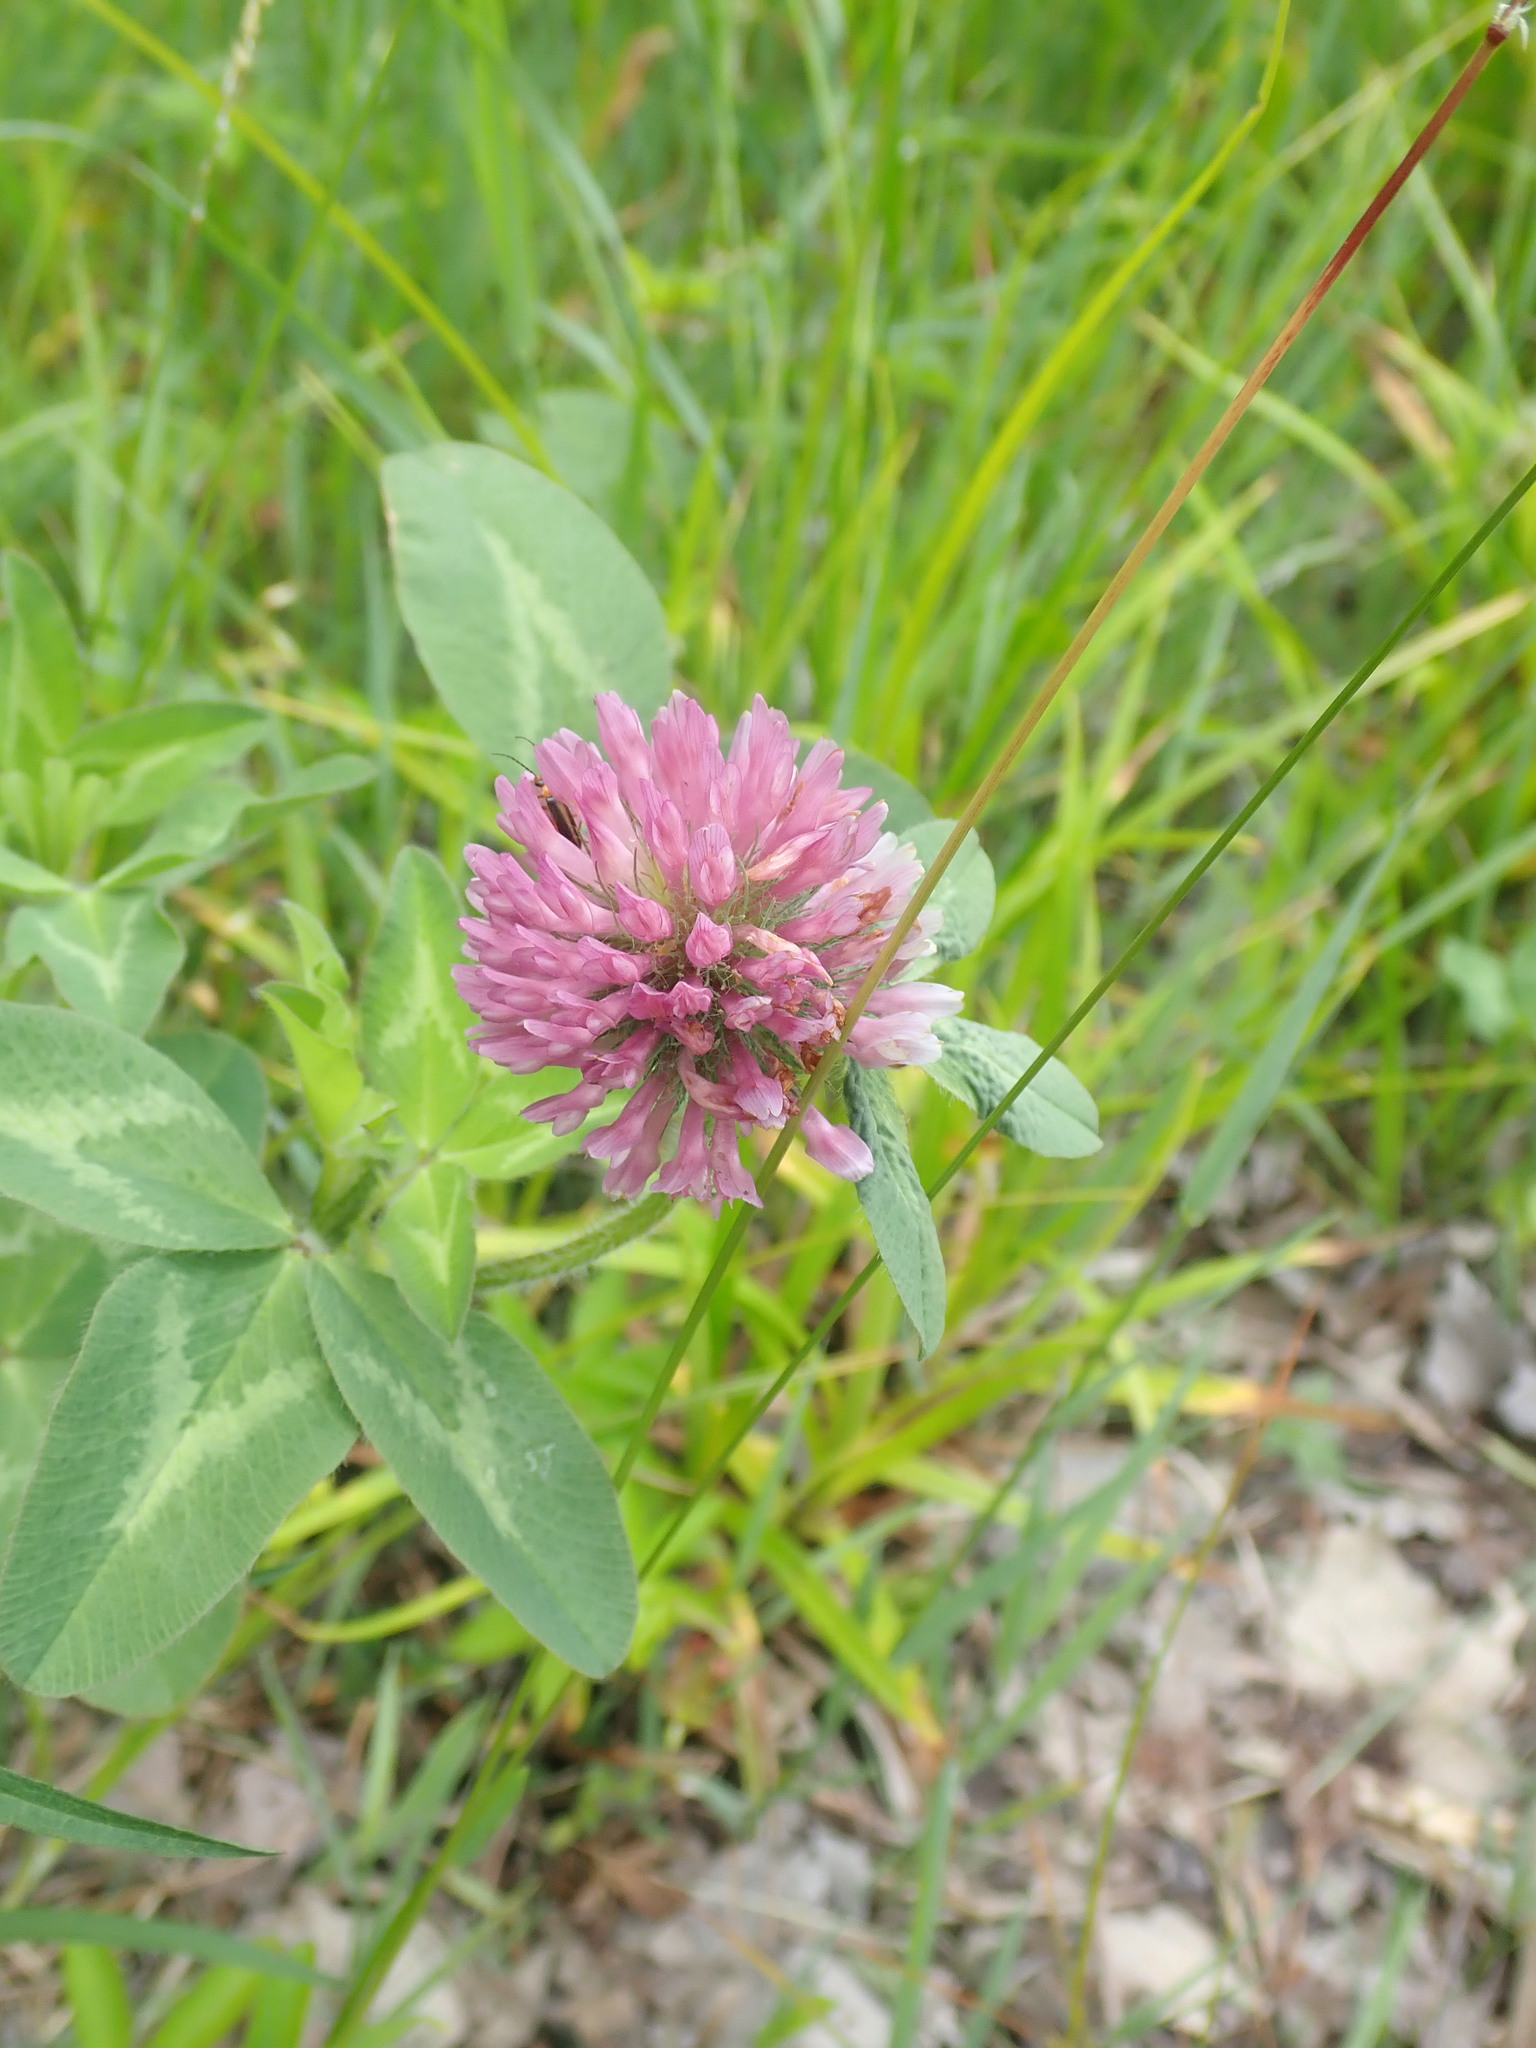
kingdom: Plantae
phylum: Tracheophyta
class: Magnoliopsida
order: Fabales
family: Fabaceae
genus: Trifolium
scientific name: Trifolium pratense
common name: Red clover
